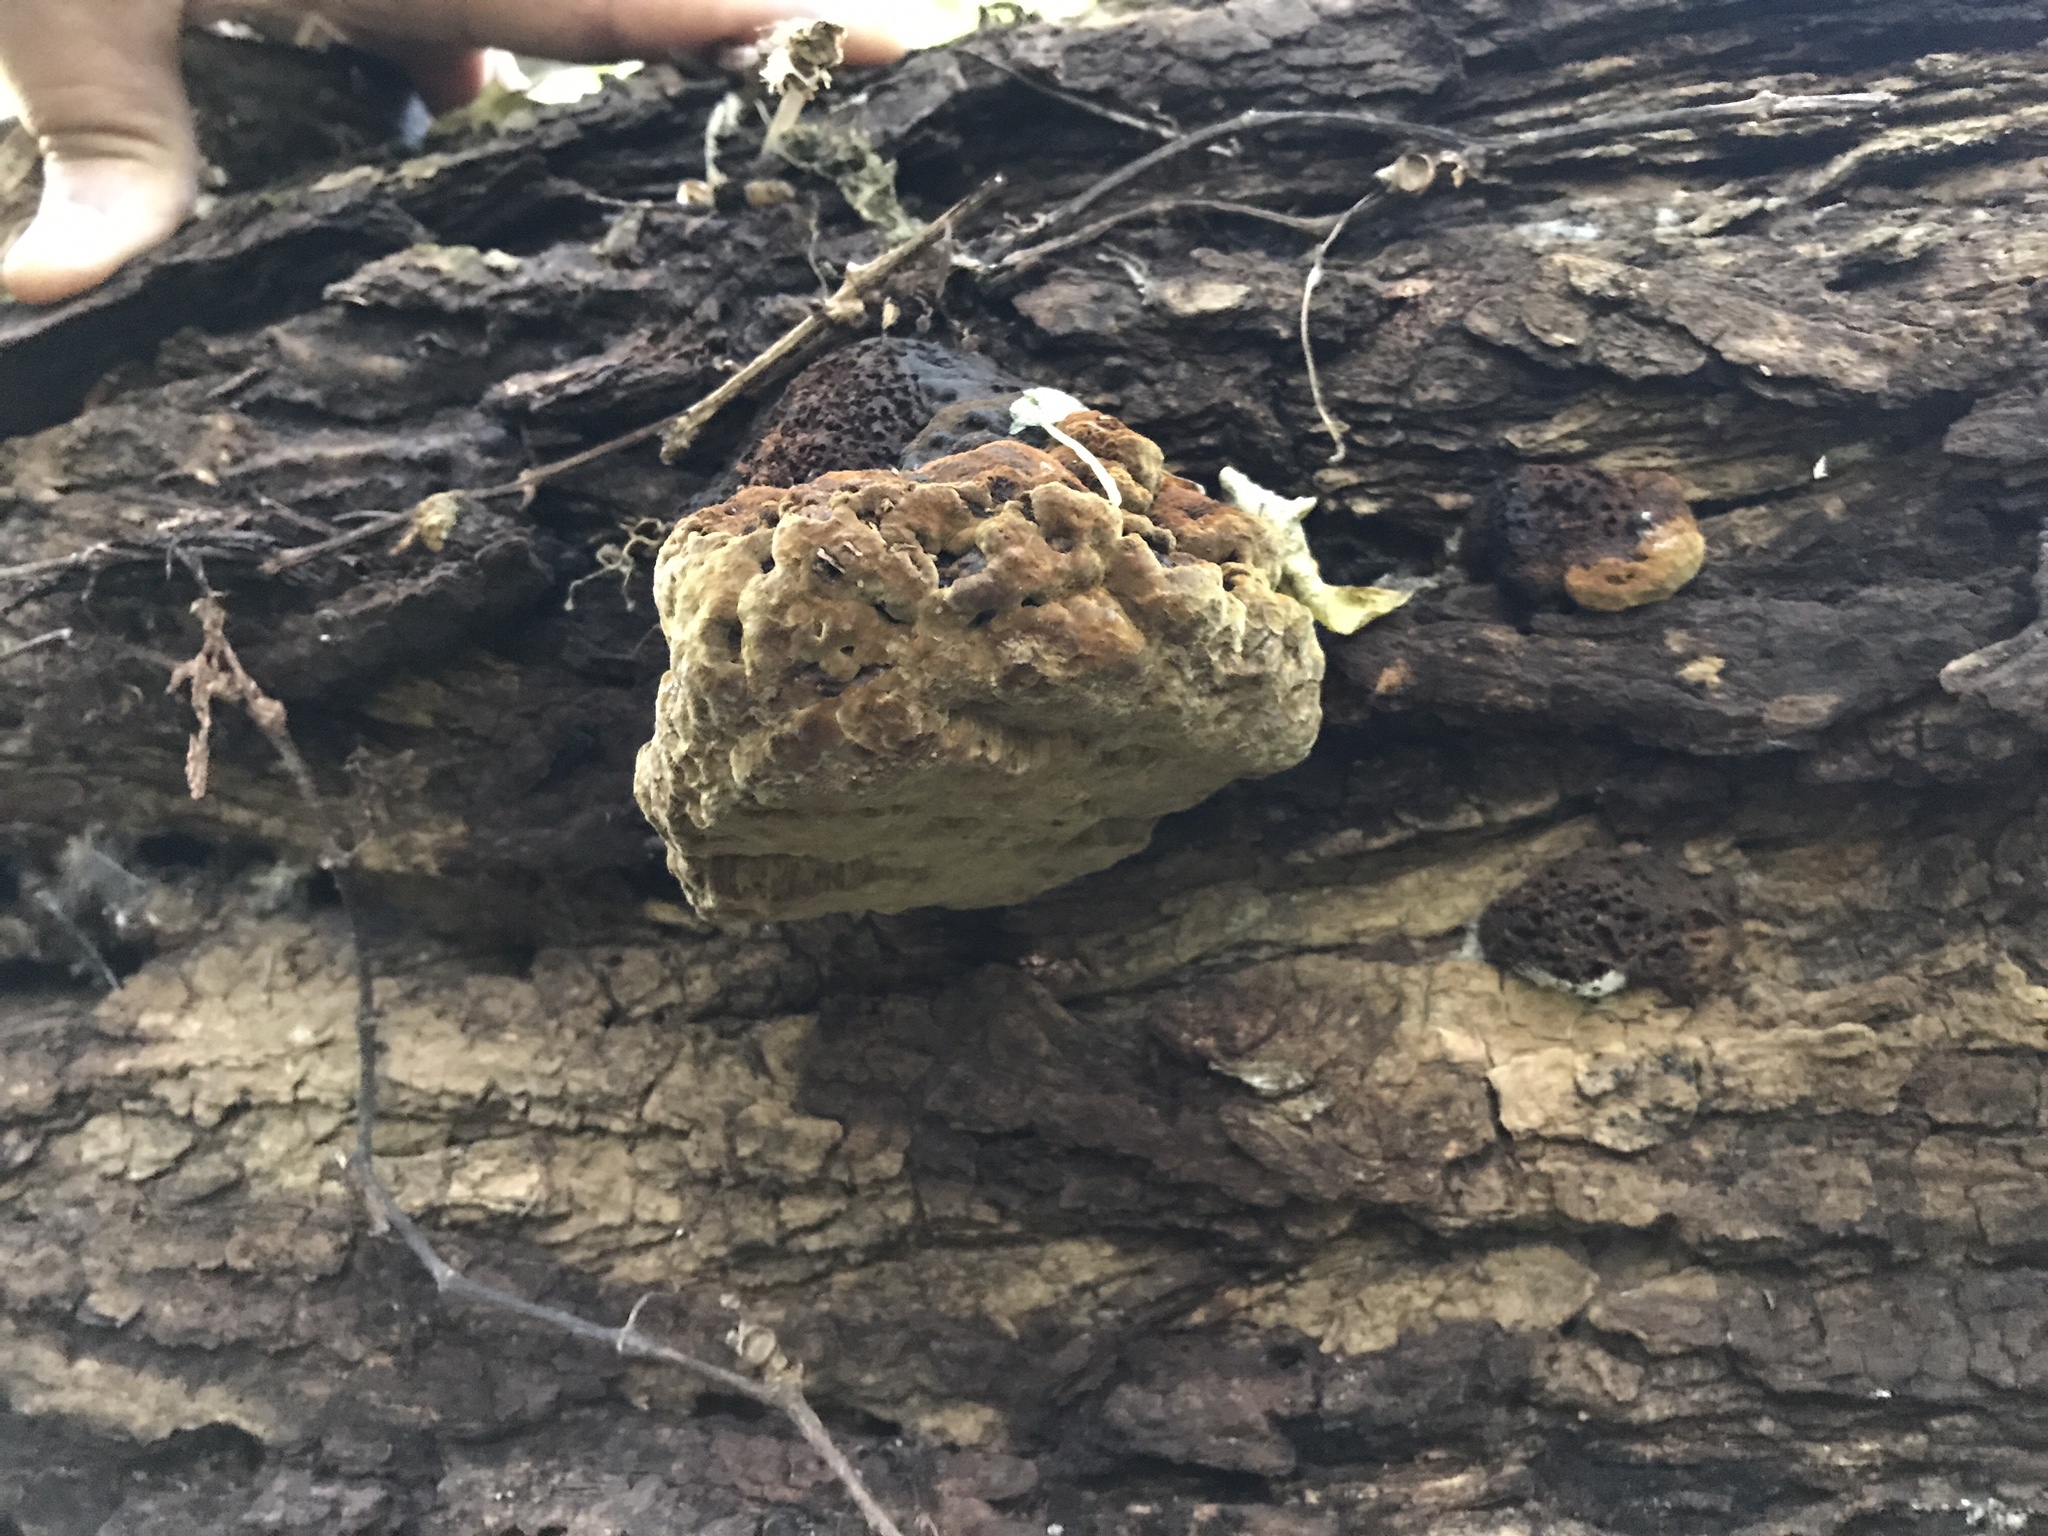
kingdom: Fungi
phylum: Basidiomycota
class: Agaricomycetes
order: Hymenochaetales
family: Hymenochaetaceae
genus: Xanthoporia
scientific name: Xanthoporia radiata
